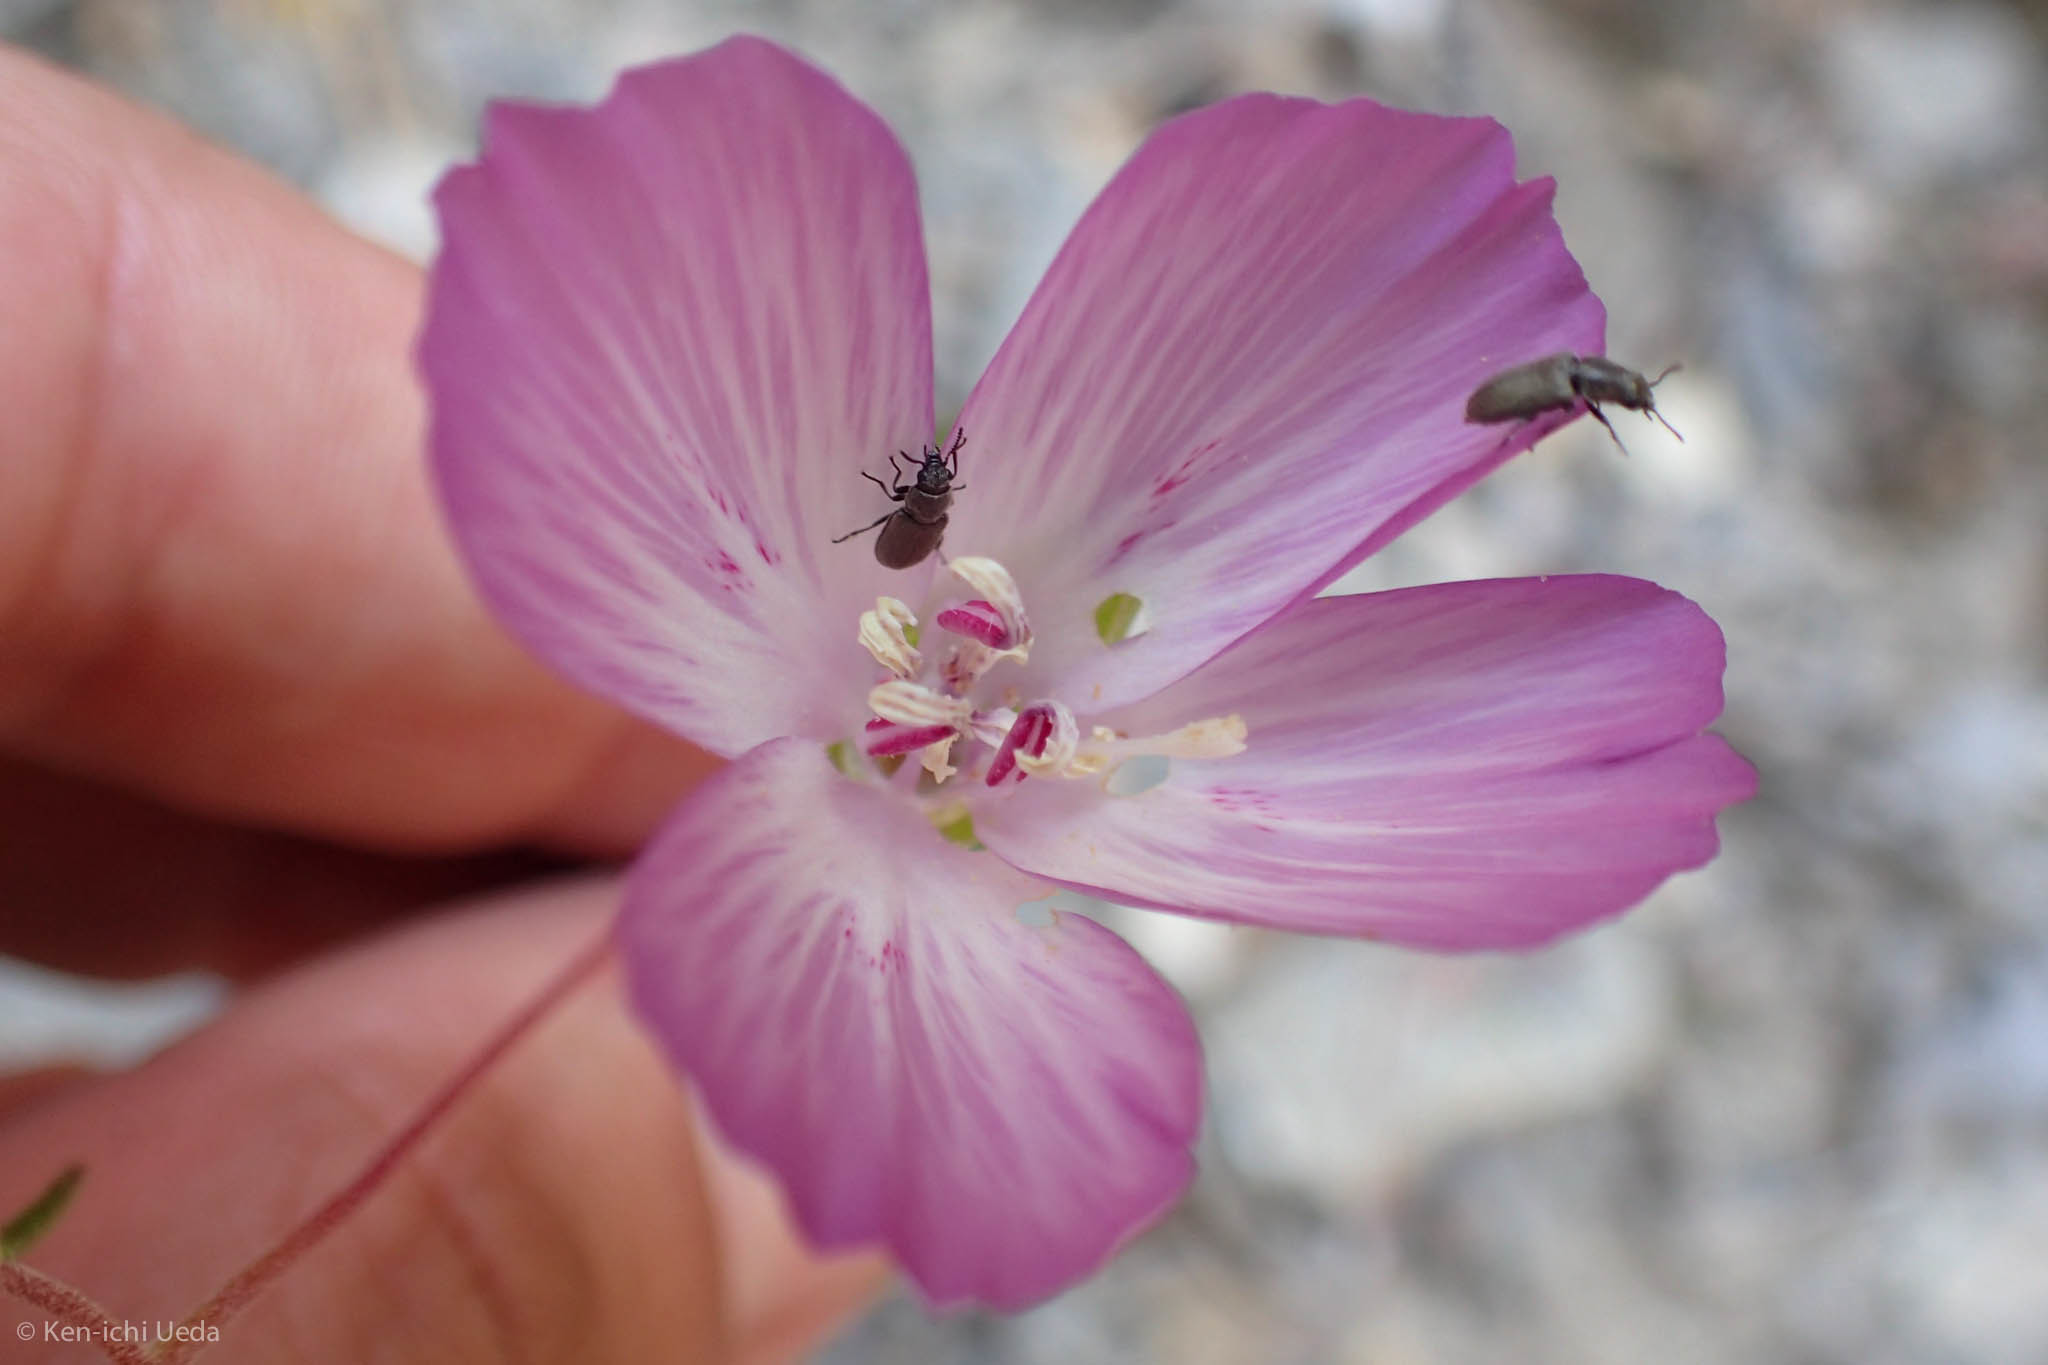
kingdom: Plantae
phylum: Tracheophyta
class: Magnoliopsida
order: Myrtales
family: Onagraceae
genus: Clarkia
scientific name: Clarkia amoena
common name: Godetia
